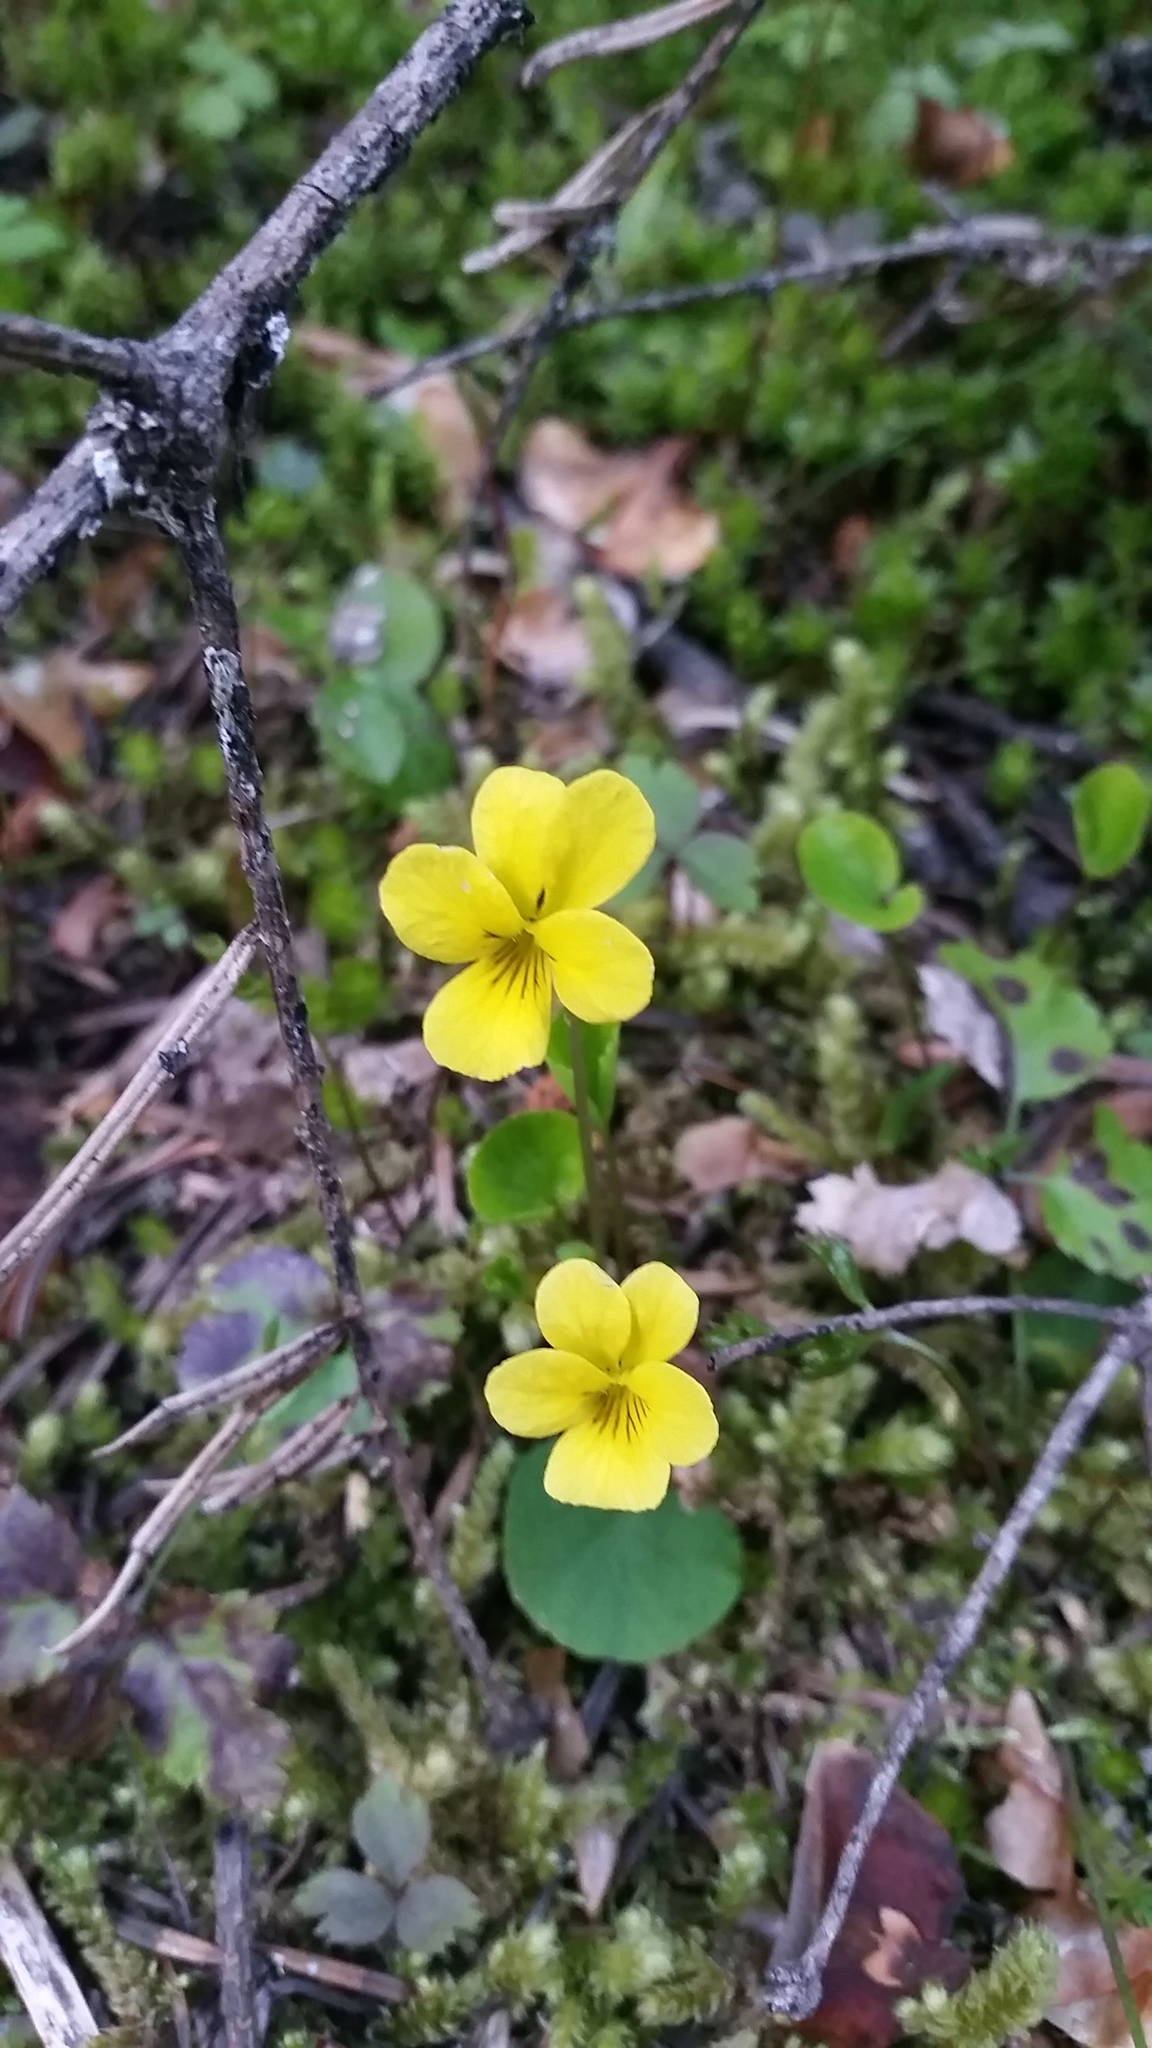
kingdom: Plantae
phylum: Tracheophyta
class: Magnoliopsida
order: Malpighiales
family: Violaceae
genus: Viola
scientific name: Viola orbiculata
